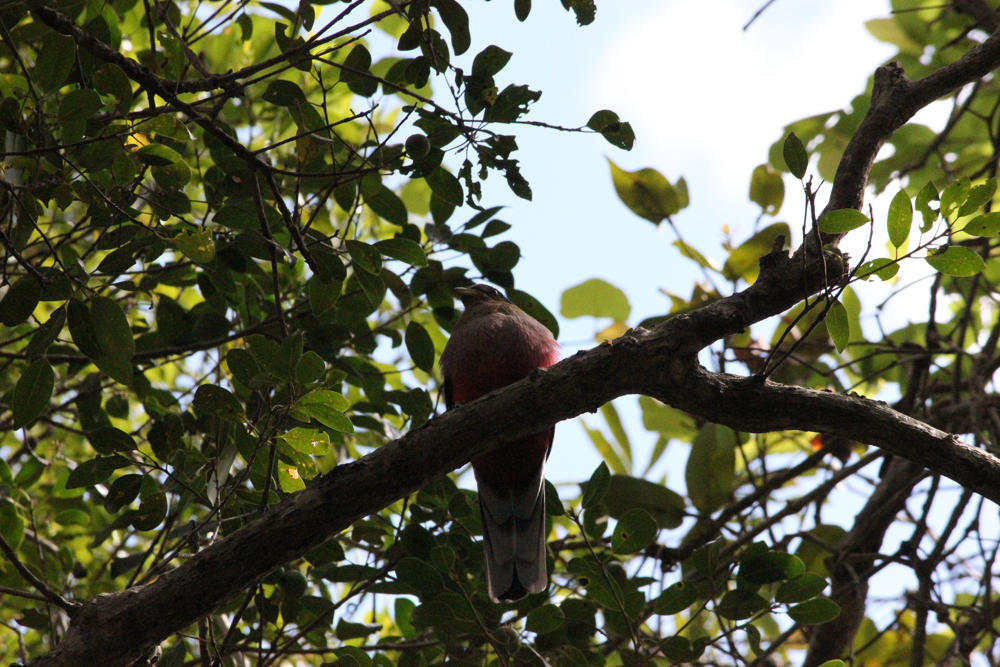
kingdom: Animalia
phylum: Chordata
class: Aves
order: Trogoniformes
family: Trogonidae
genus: Apaloderma
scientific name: Apaloderma narina
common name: Narina trogon
